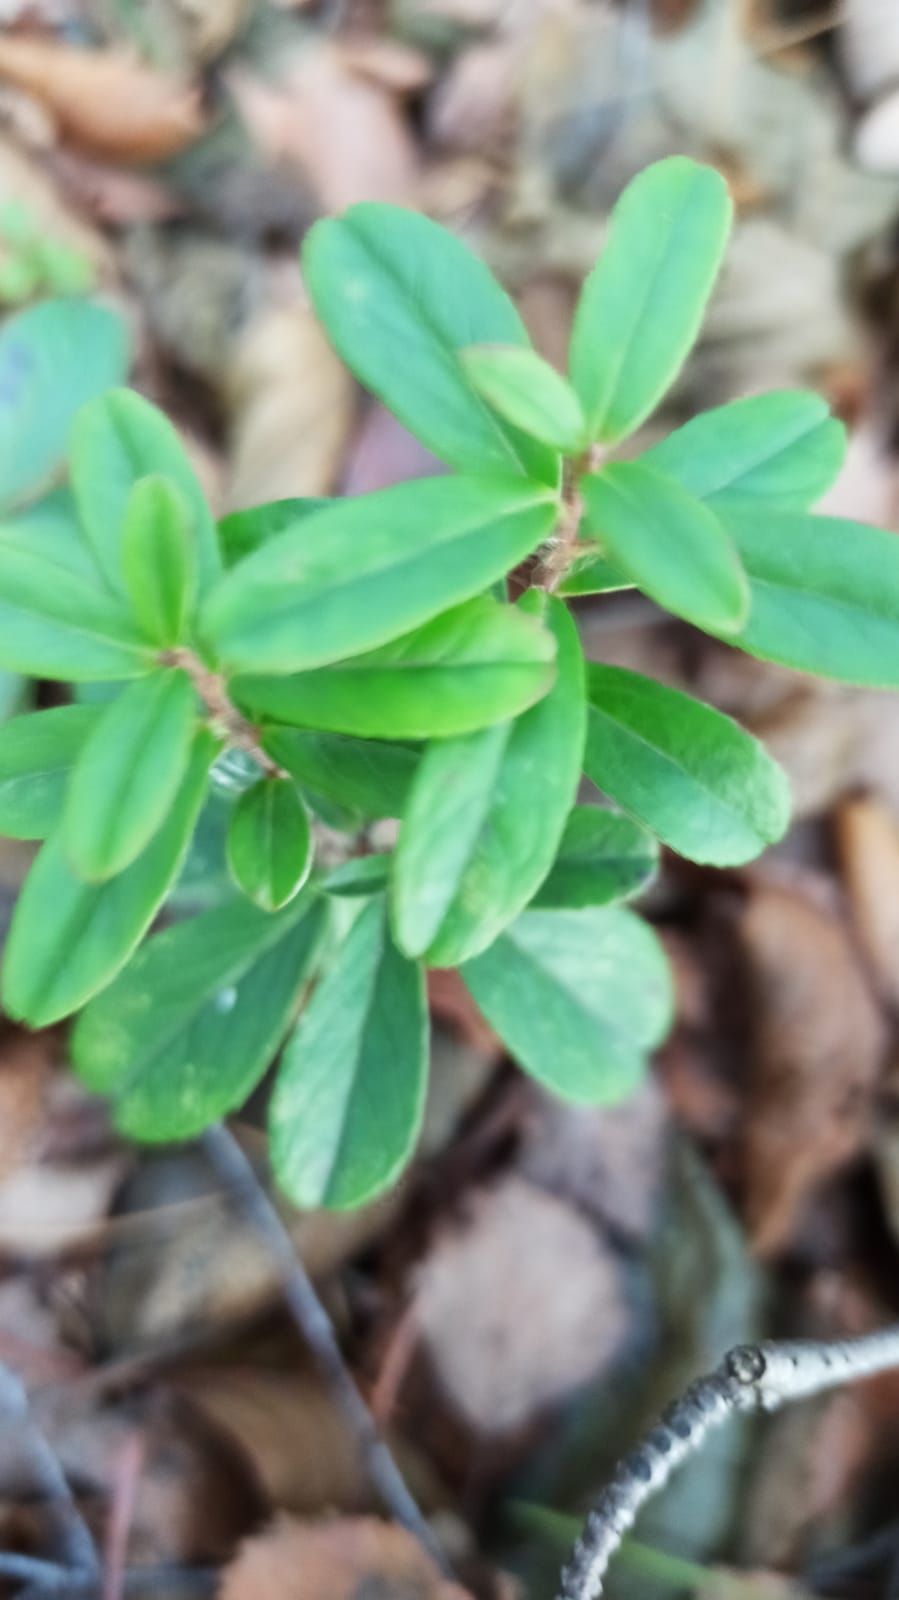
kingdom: Plantae
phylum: Tracheophyta
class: Magnoliopsida
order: Ericales
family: Ericaceae
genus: Vaccinium
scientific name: Vaccinium vitis-idaea
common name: Cowberry
